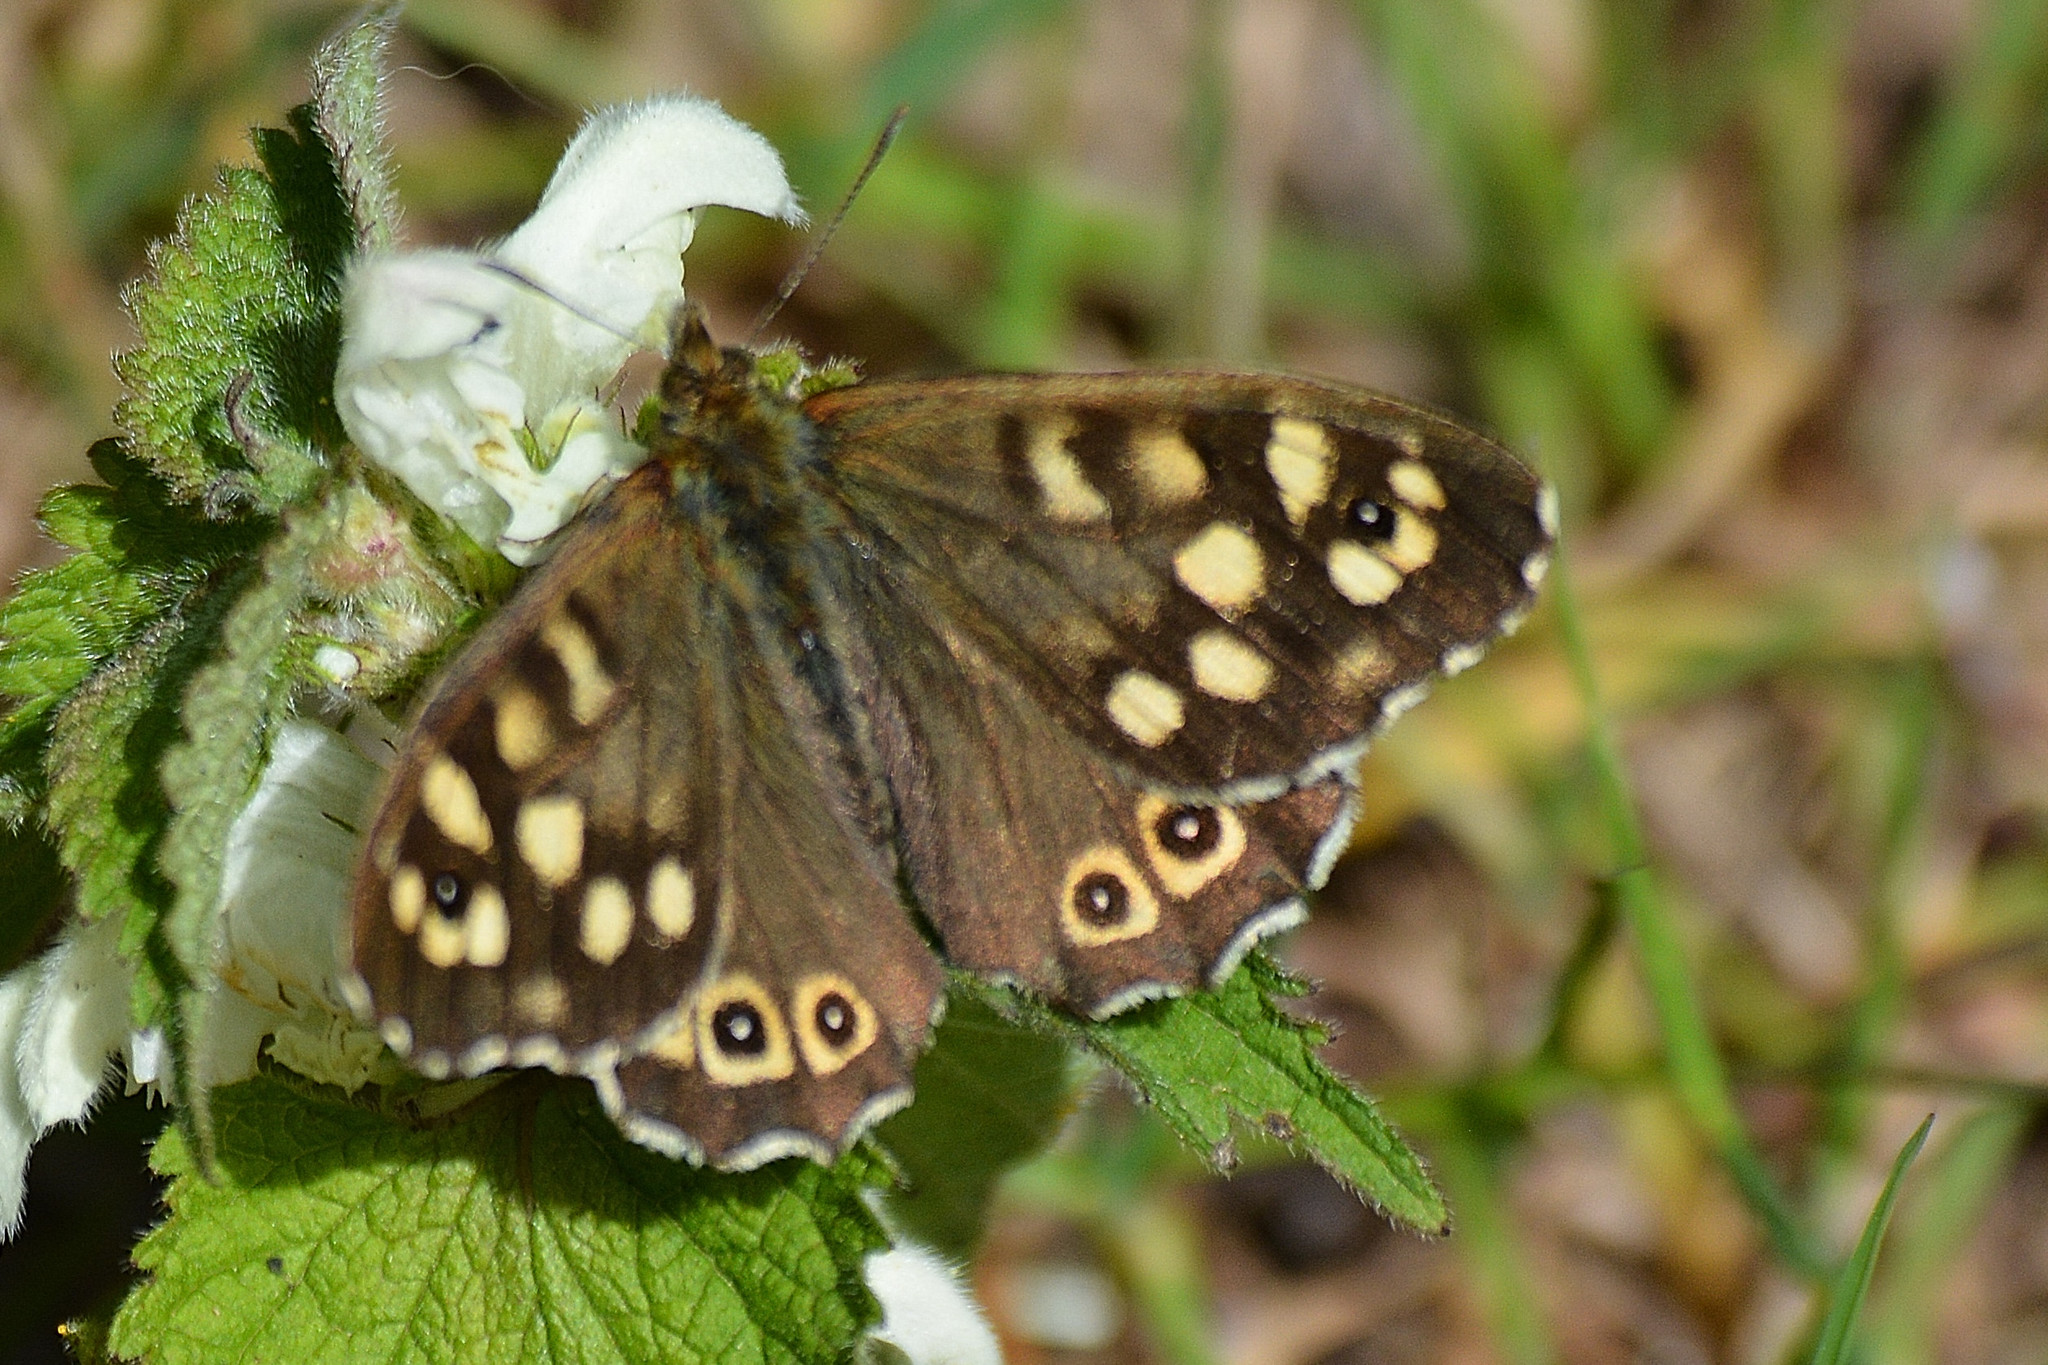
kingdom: Animalia
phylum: Arthropoda
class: Insecta
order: Lepidoptera
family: Nymphalidae
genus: Pararge
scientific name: Pararge aegeria
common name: Speckled wood
